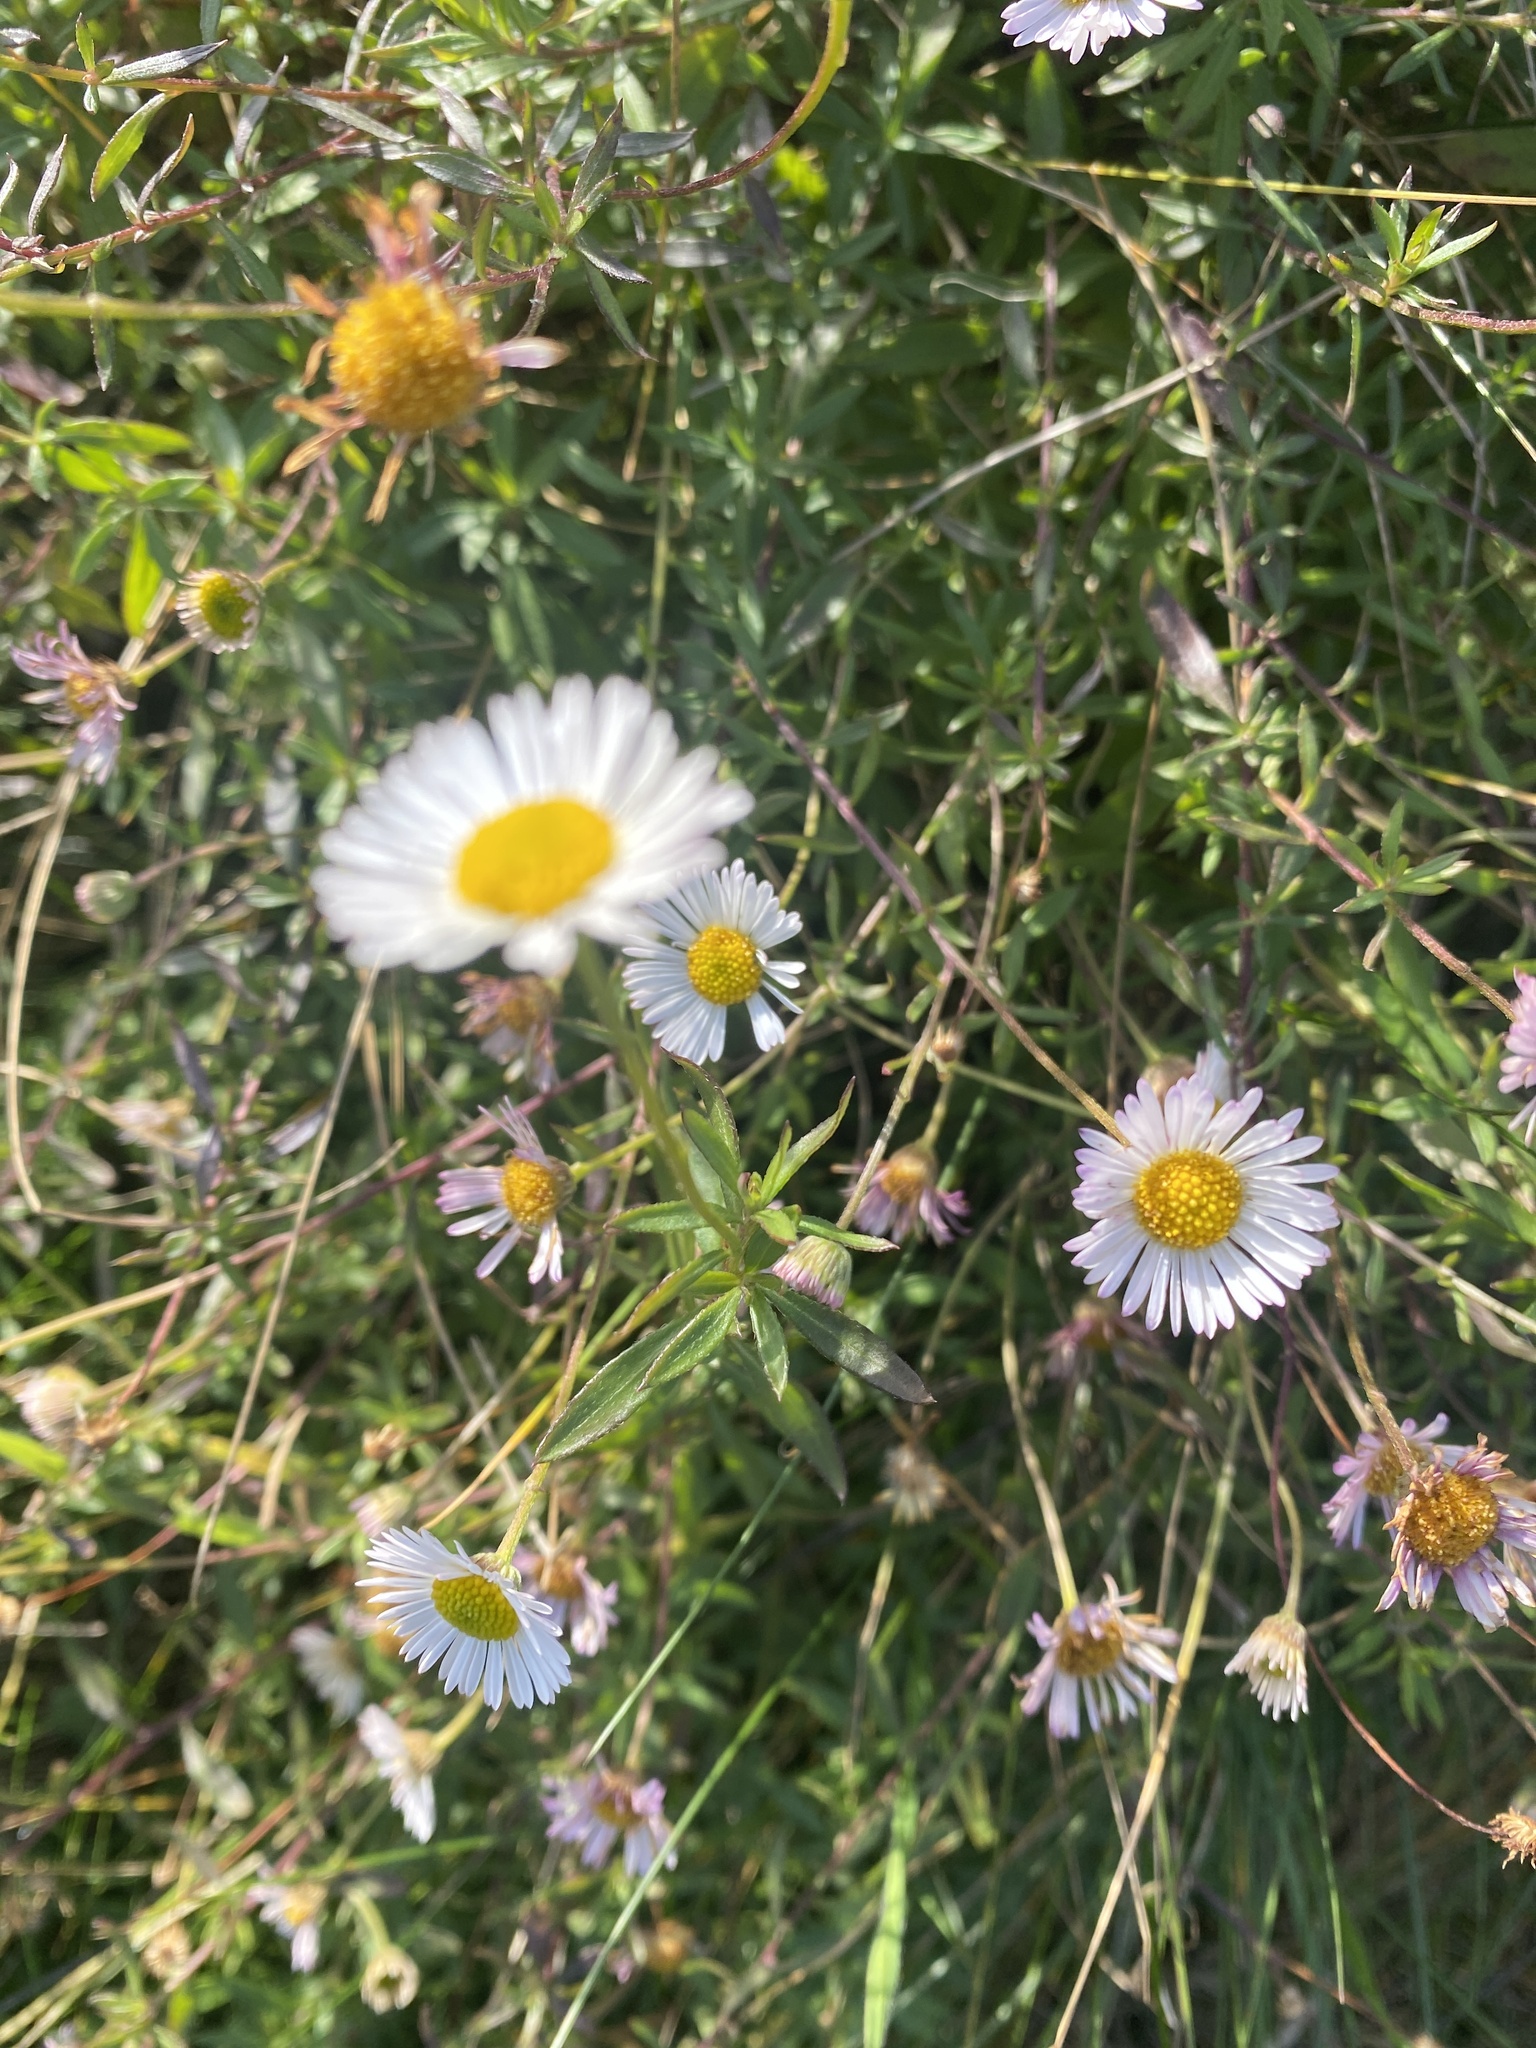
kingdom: Plantae
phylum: Tracheophyta
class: Magnoliopsida
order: Asterales
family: Asteraceae
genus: Erigeron
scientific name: Erigeron karvinskianus
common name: Mexican fleabane
